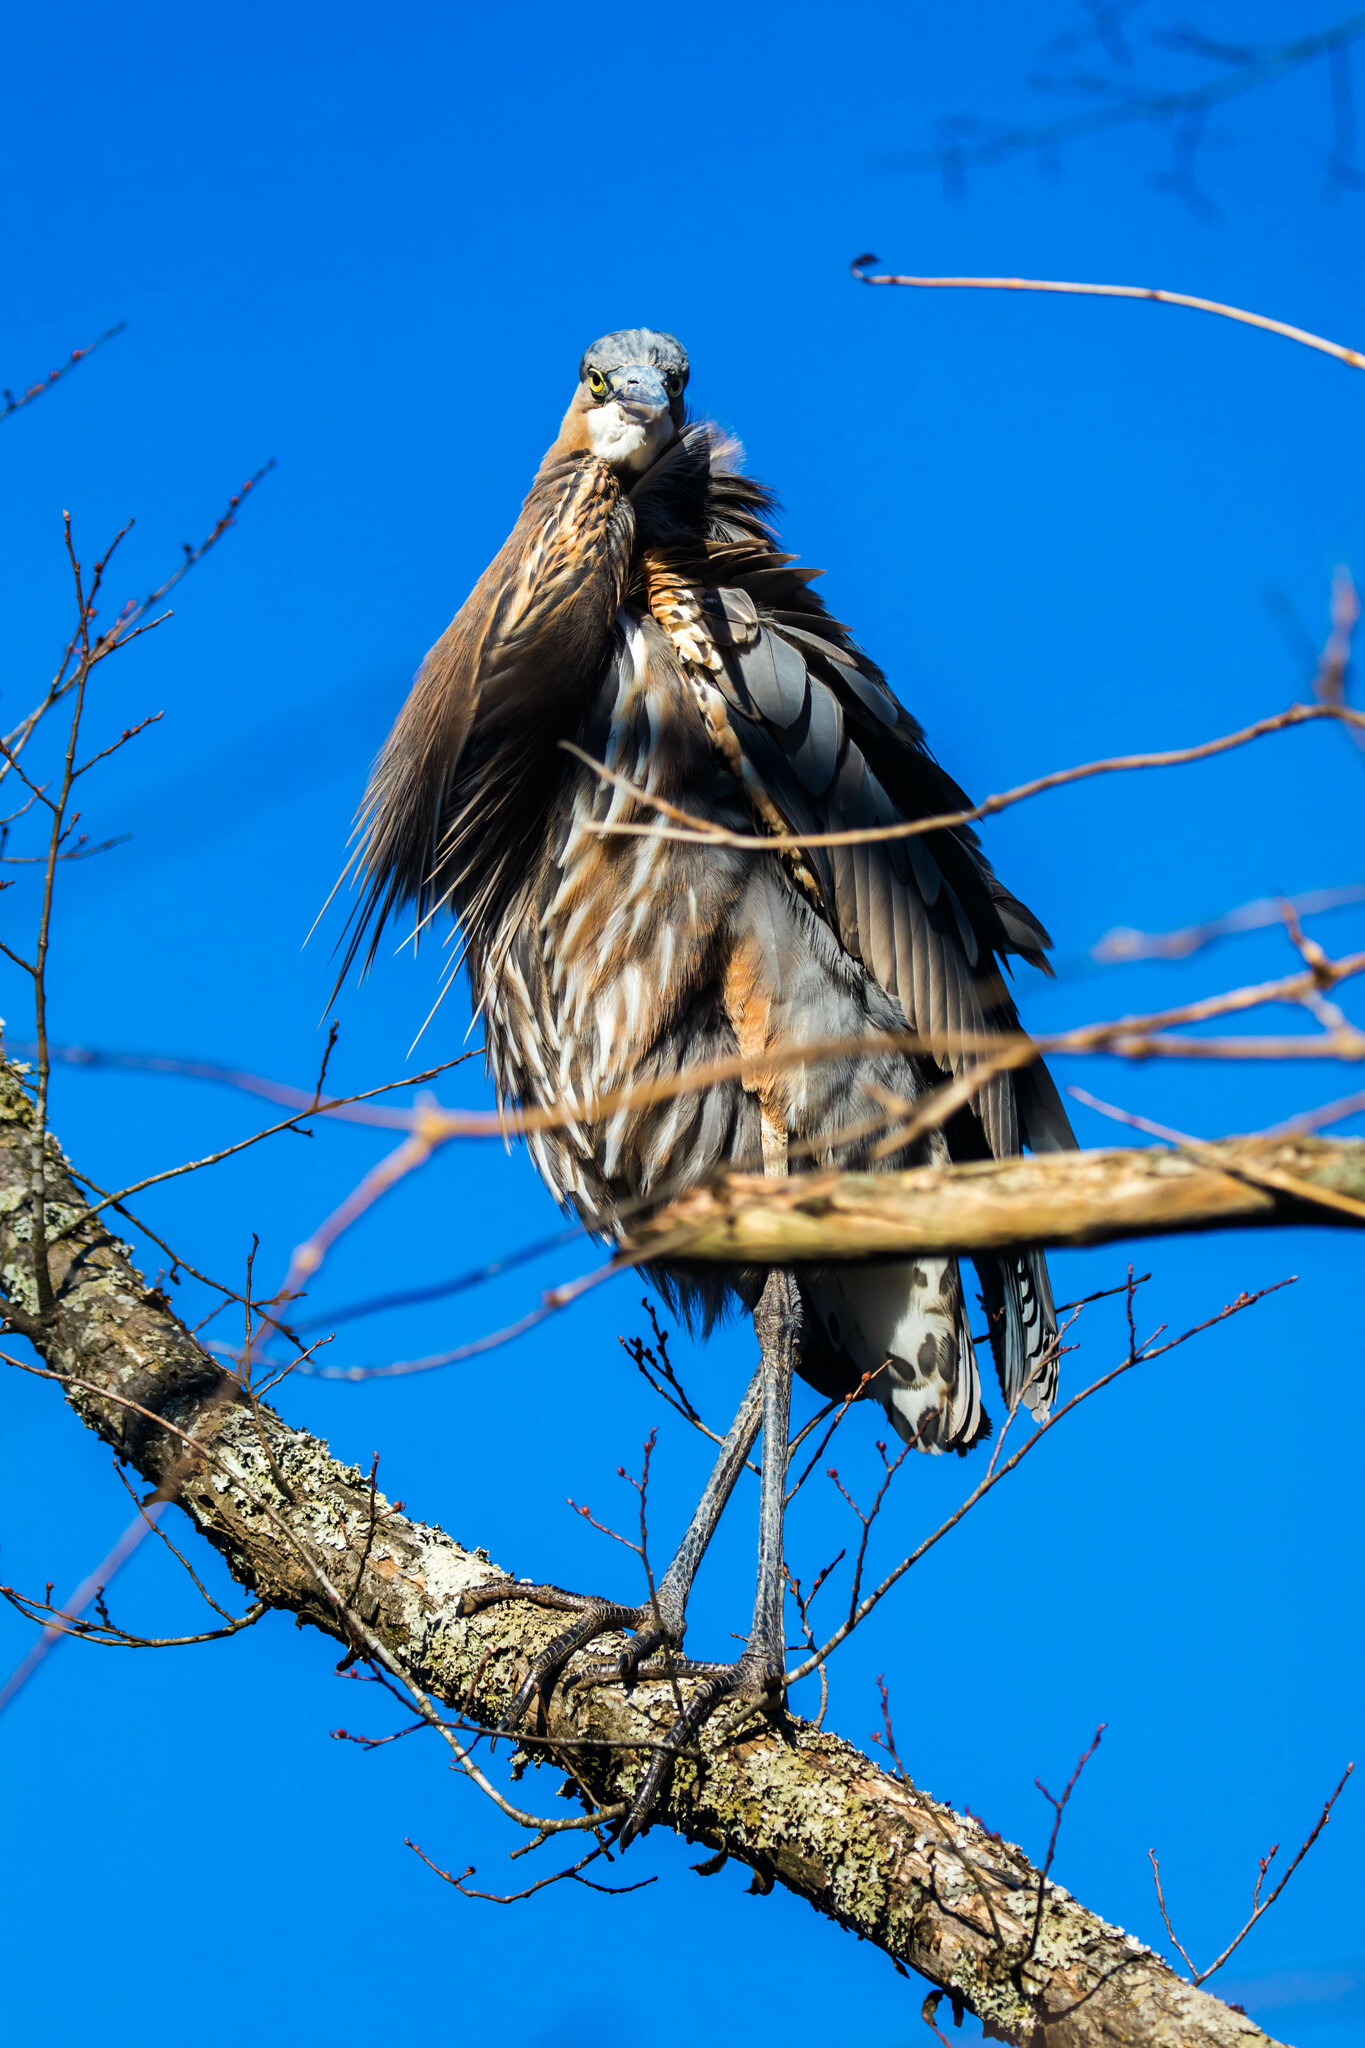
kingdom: Animalia
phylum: Chordata
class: Aves
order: Pelecaniformes
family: Ardeidae
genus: Ardea
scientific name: Ardea herodias
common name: Great blue heron
